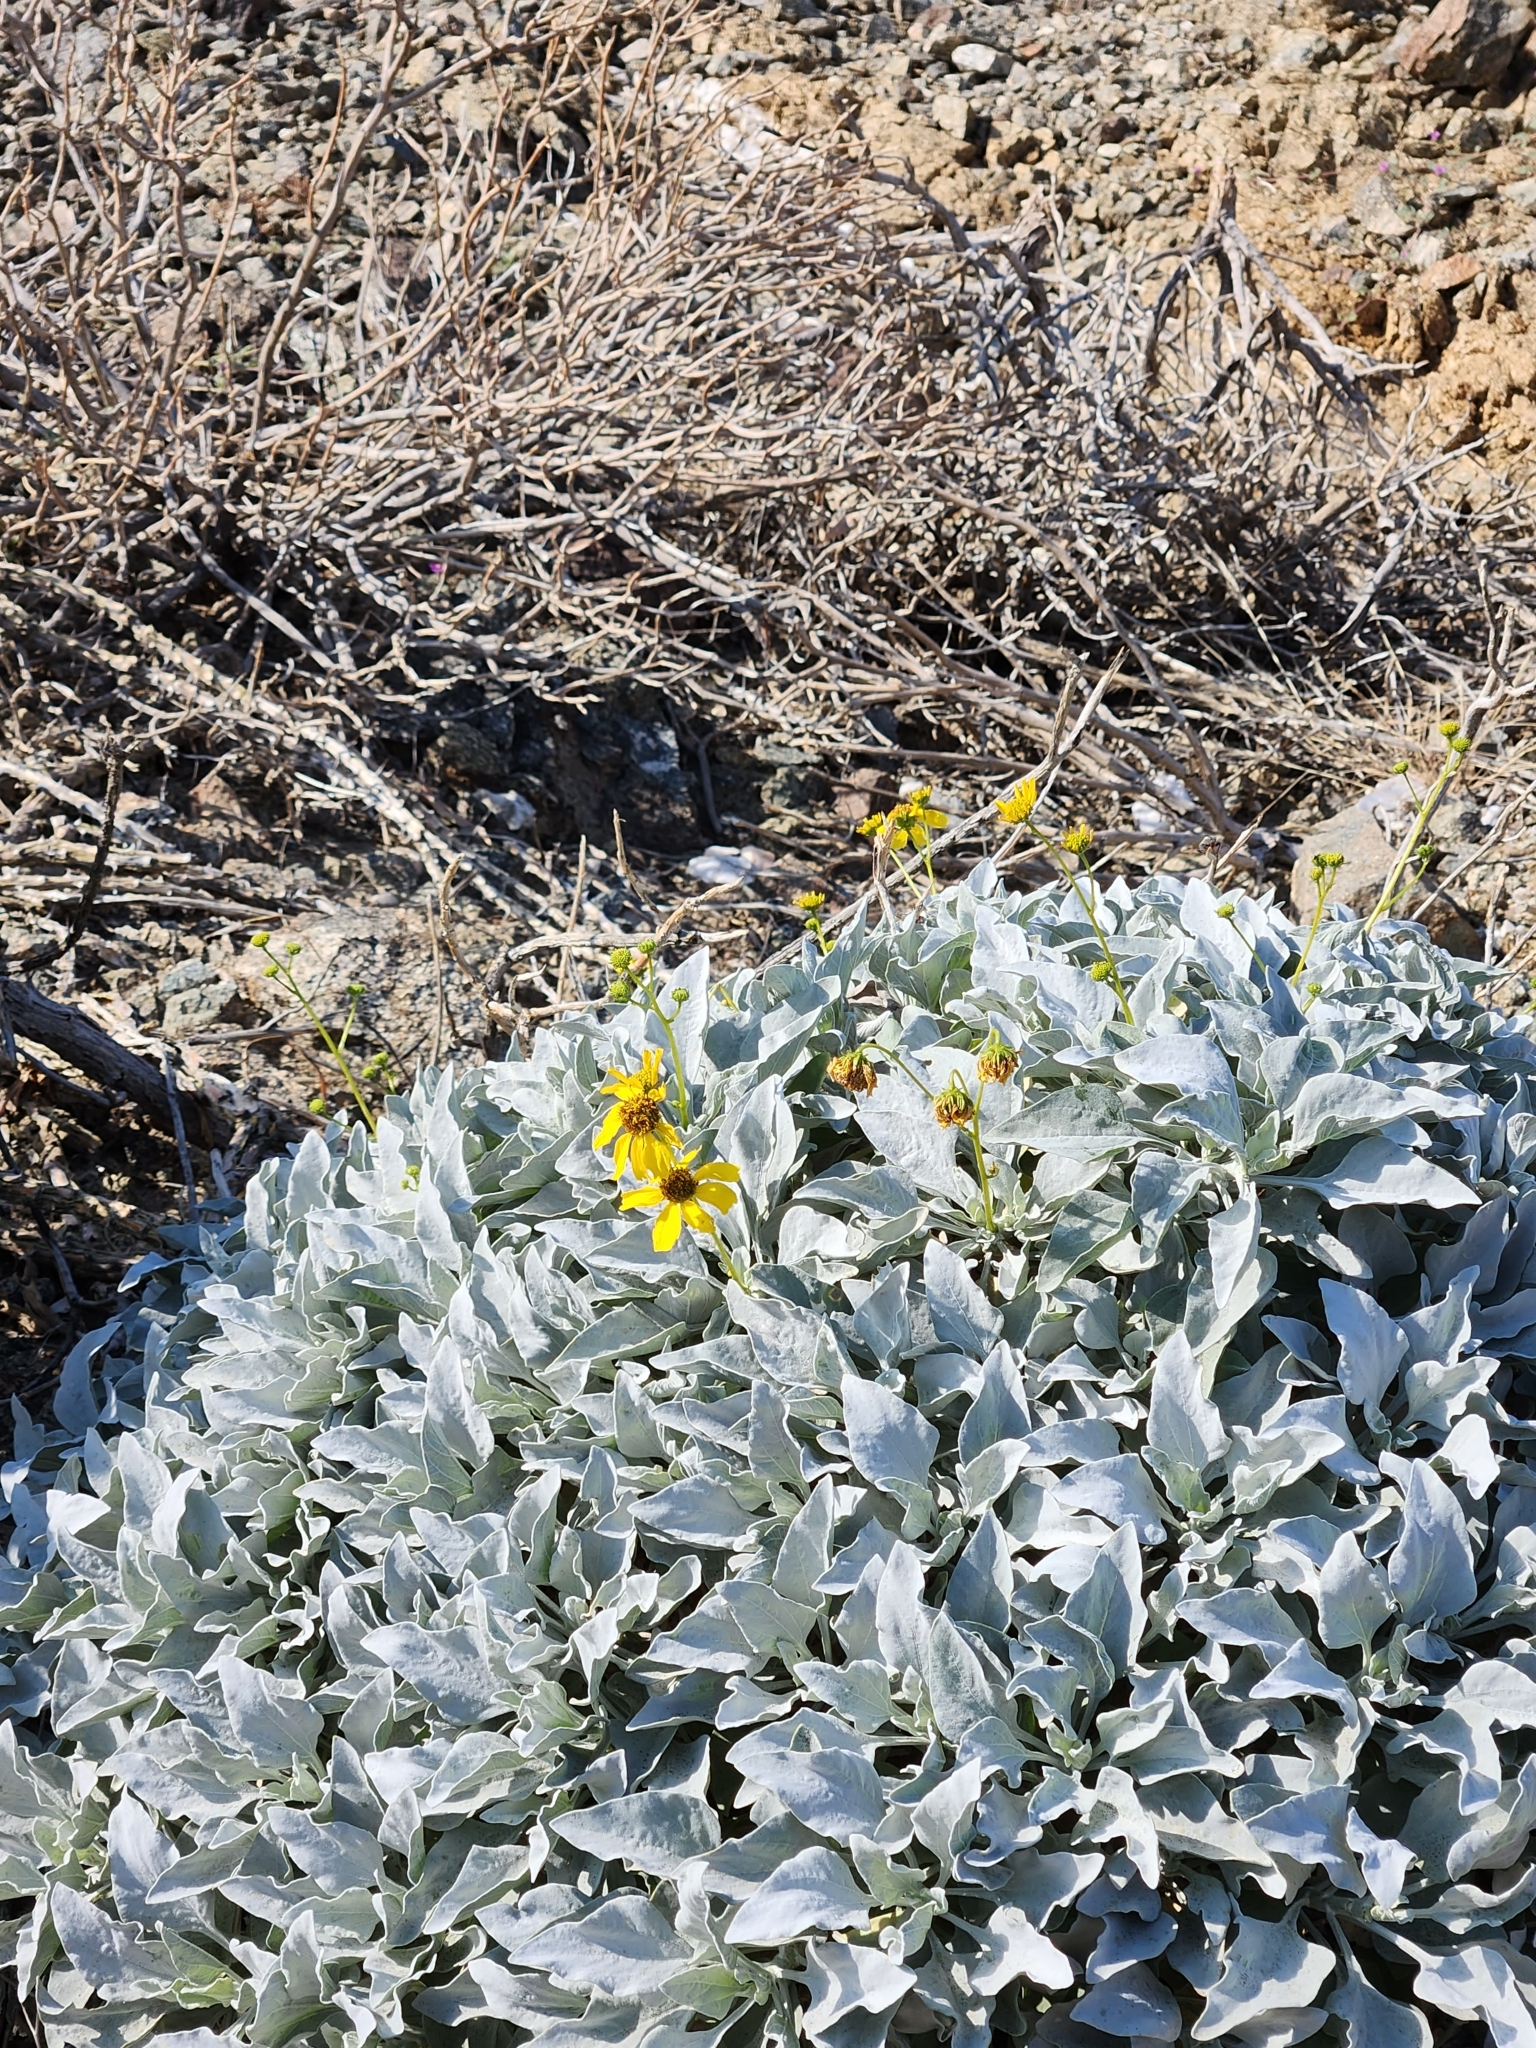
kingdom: Plantae
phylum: Tracheophyta
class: Magnoliopsida
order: Asterales
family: Asteraceae
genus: Encelia
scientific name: Encelia farinosa
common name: Brittlebush
